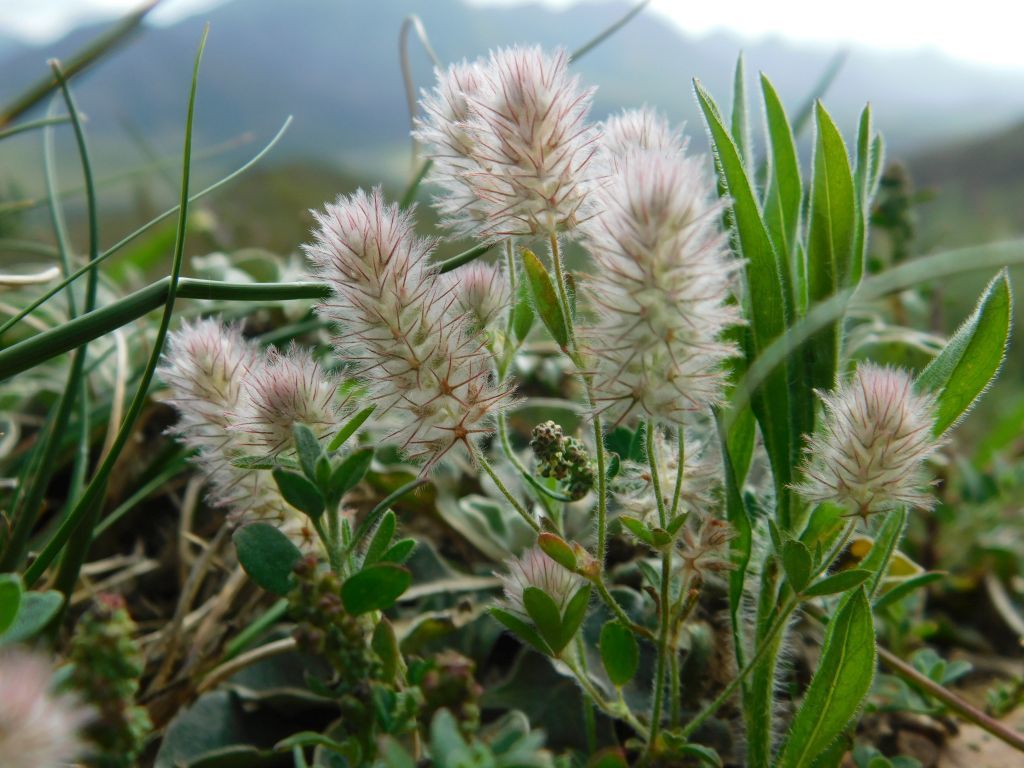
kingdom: Plantae
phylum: Tracheophyta
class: Magnoliopsida
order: Fabales
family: Fabaceae
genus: Trifolium
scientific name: Trifolium arvense
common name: Hare's-foot clover
